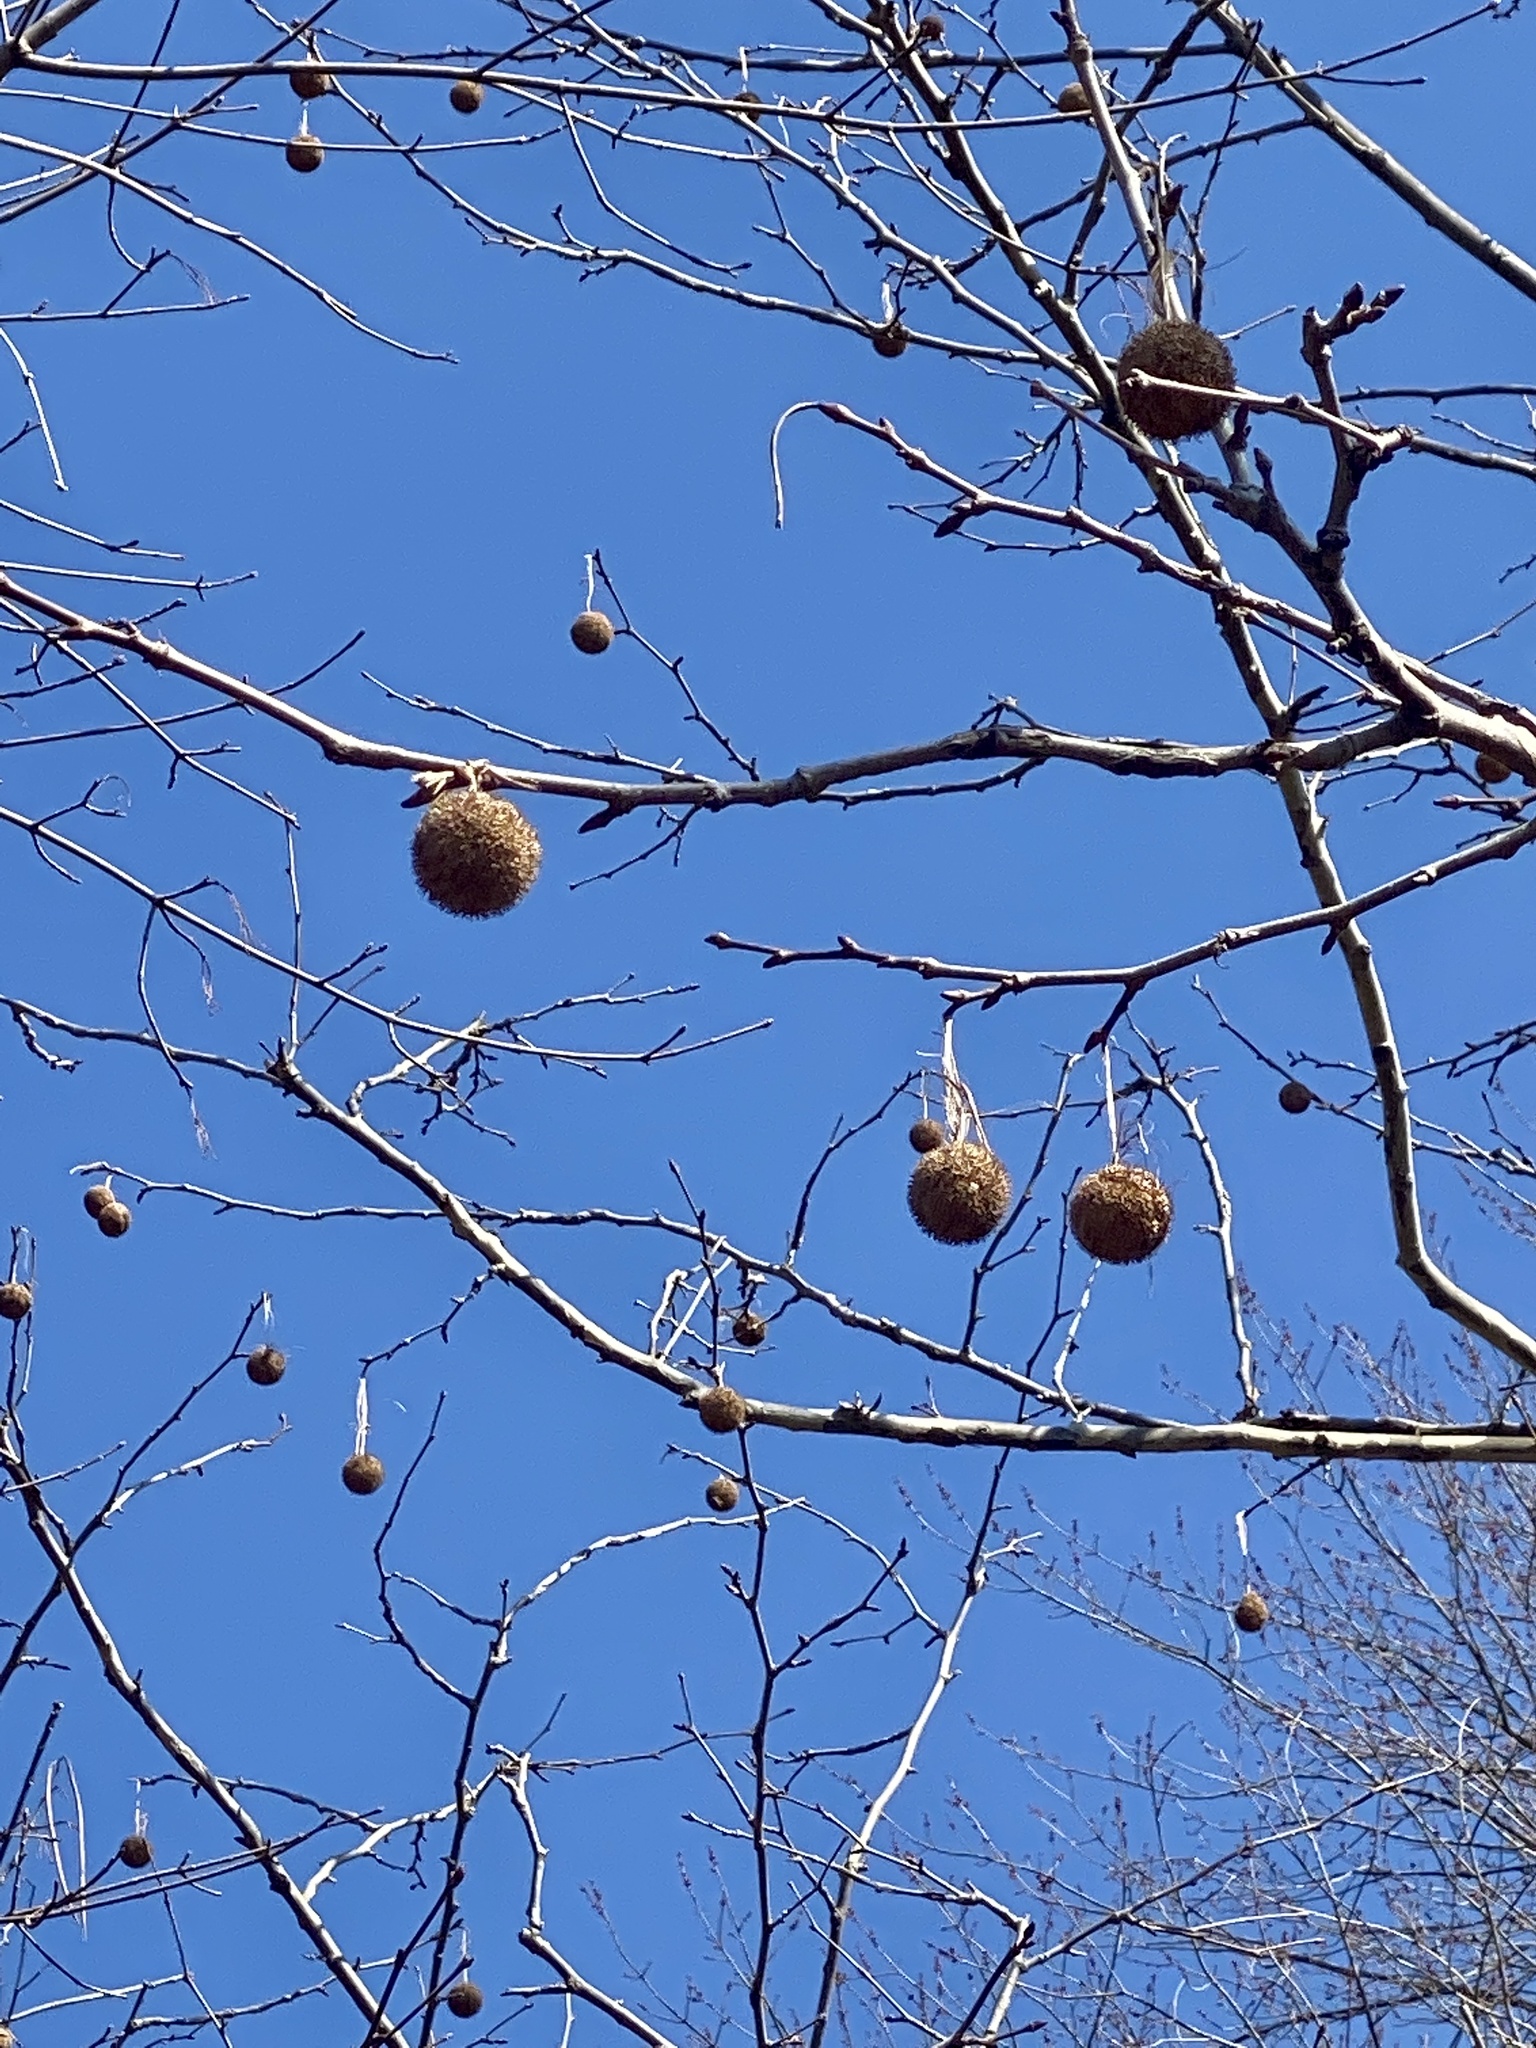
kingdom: Plantae
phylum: Tracheophyta
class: Magnoliopsida
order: Proteales
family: Platanaceae
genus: Platanus
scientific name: Platanus occidentalis
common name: American sycamore
